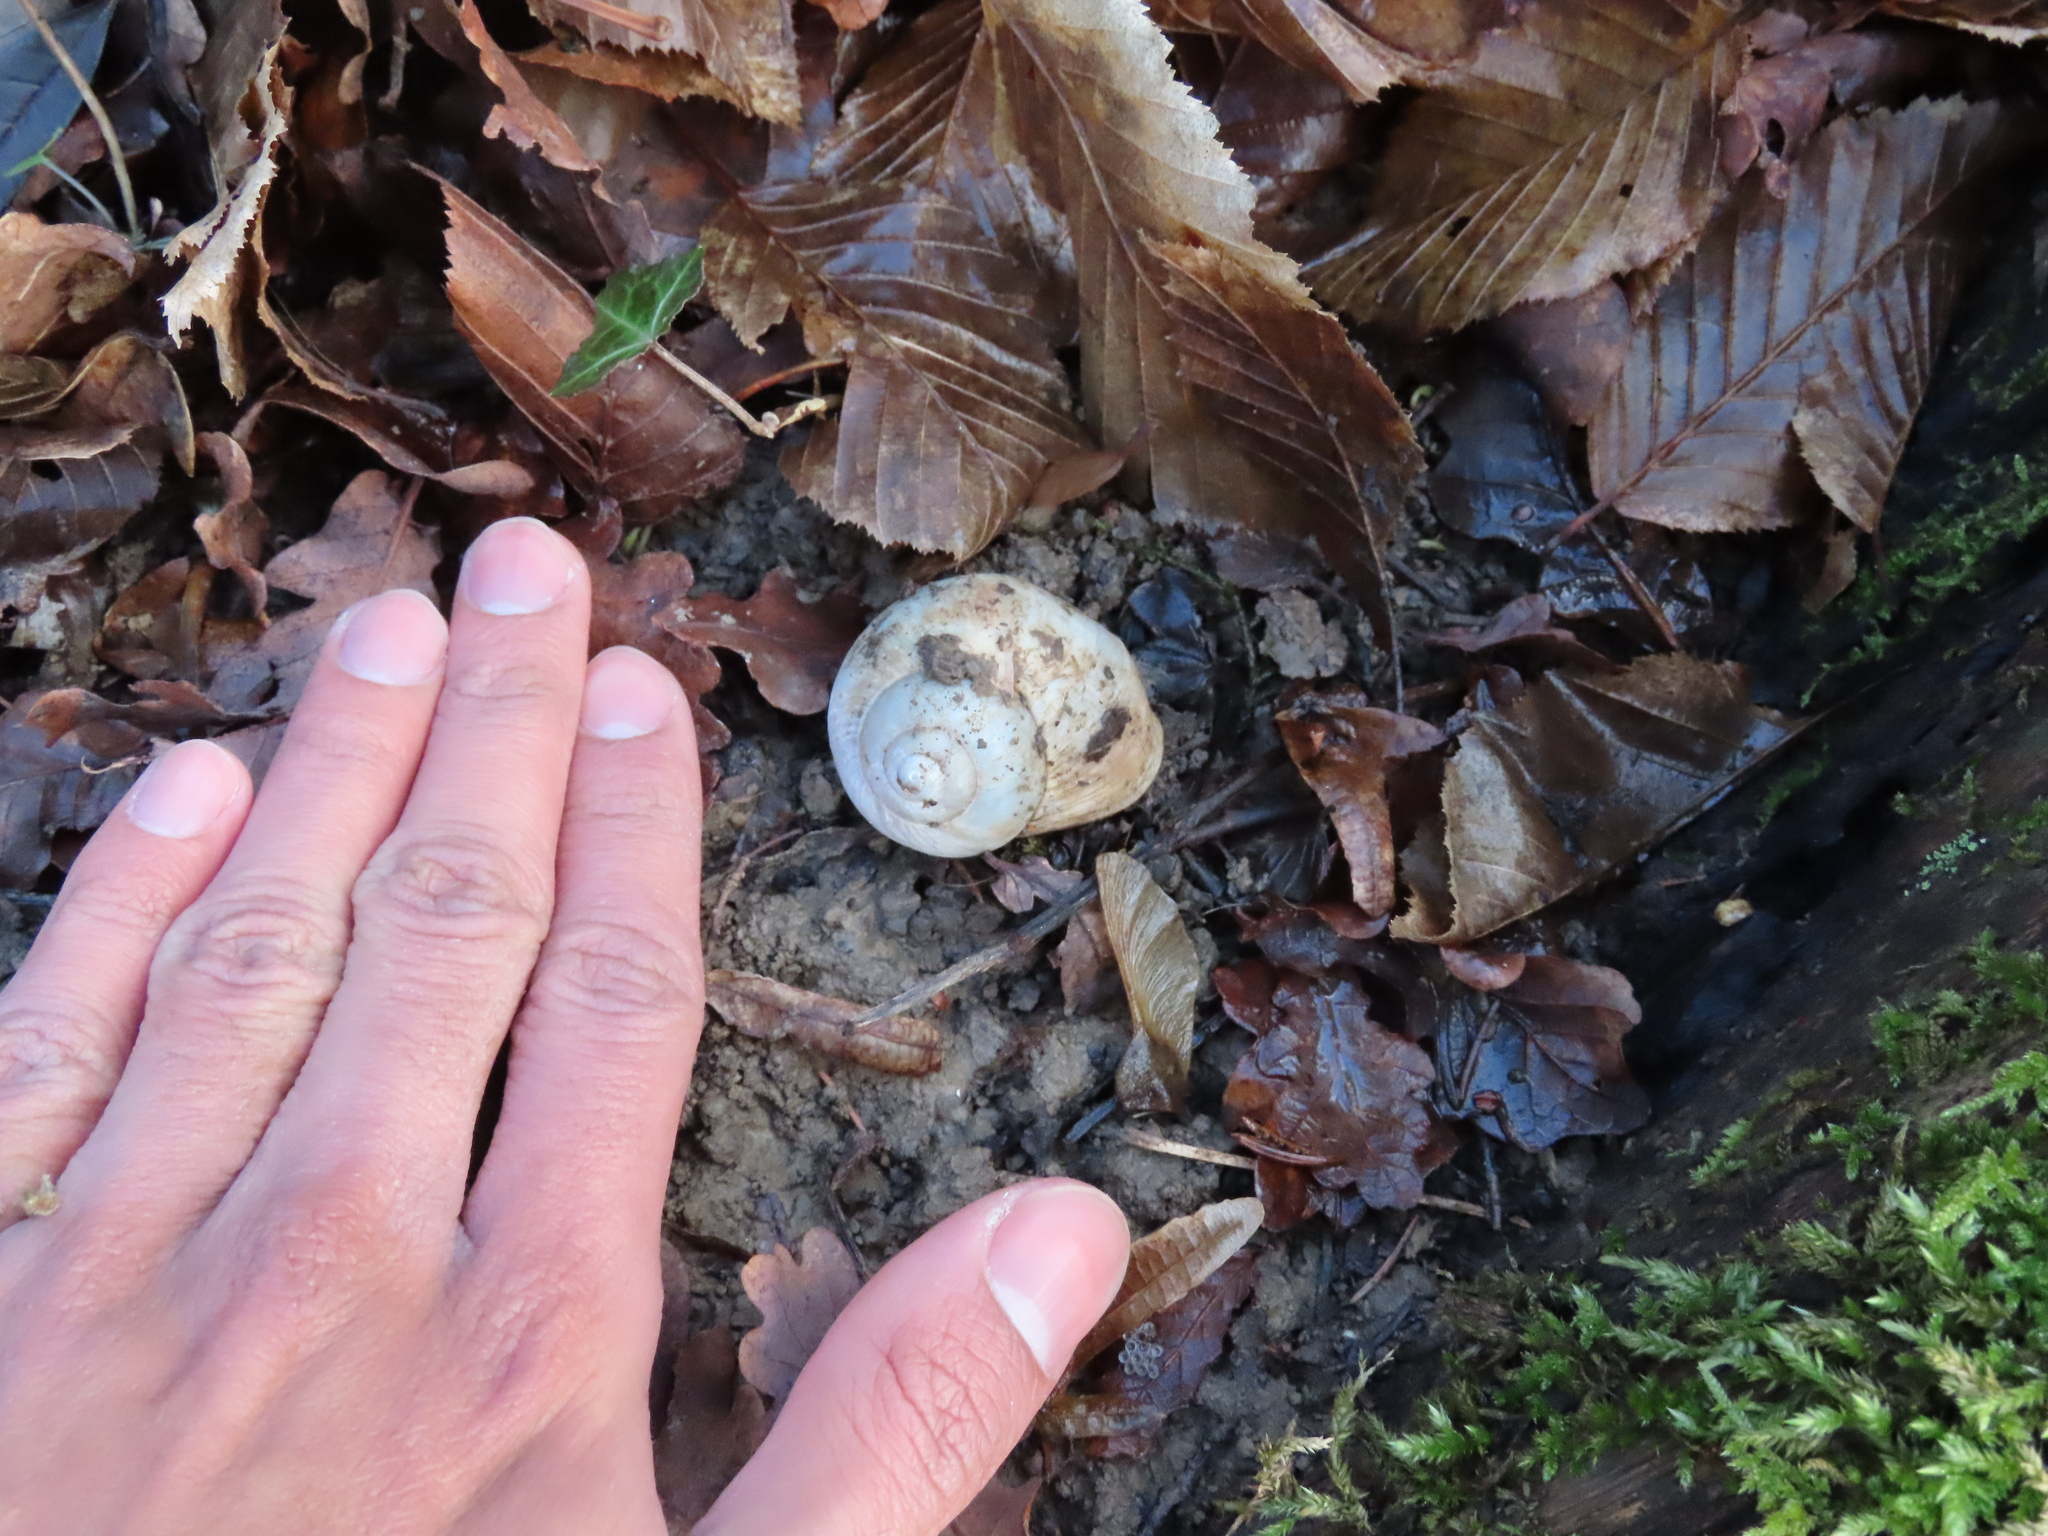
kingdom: Animalia
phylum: Mollusca
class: Gastropoda
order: Stylommatophora
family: Helicidae
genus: Helix
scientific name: Helix pomatia
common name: Roman snail
